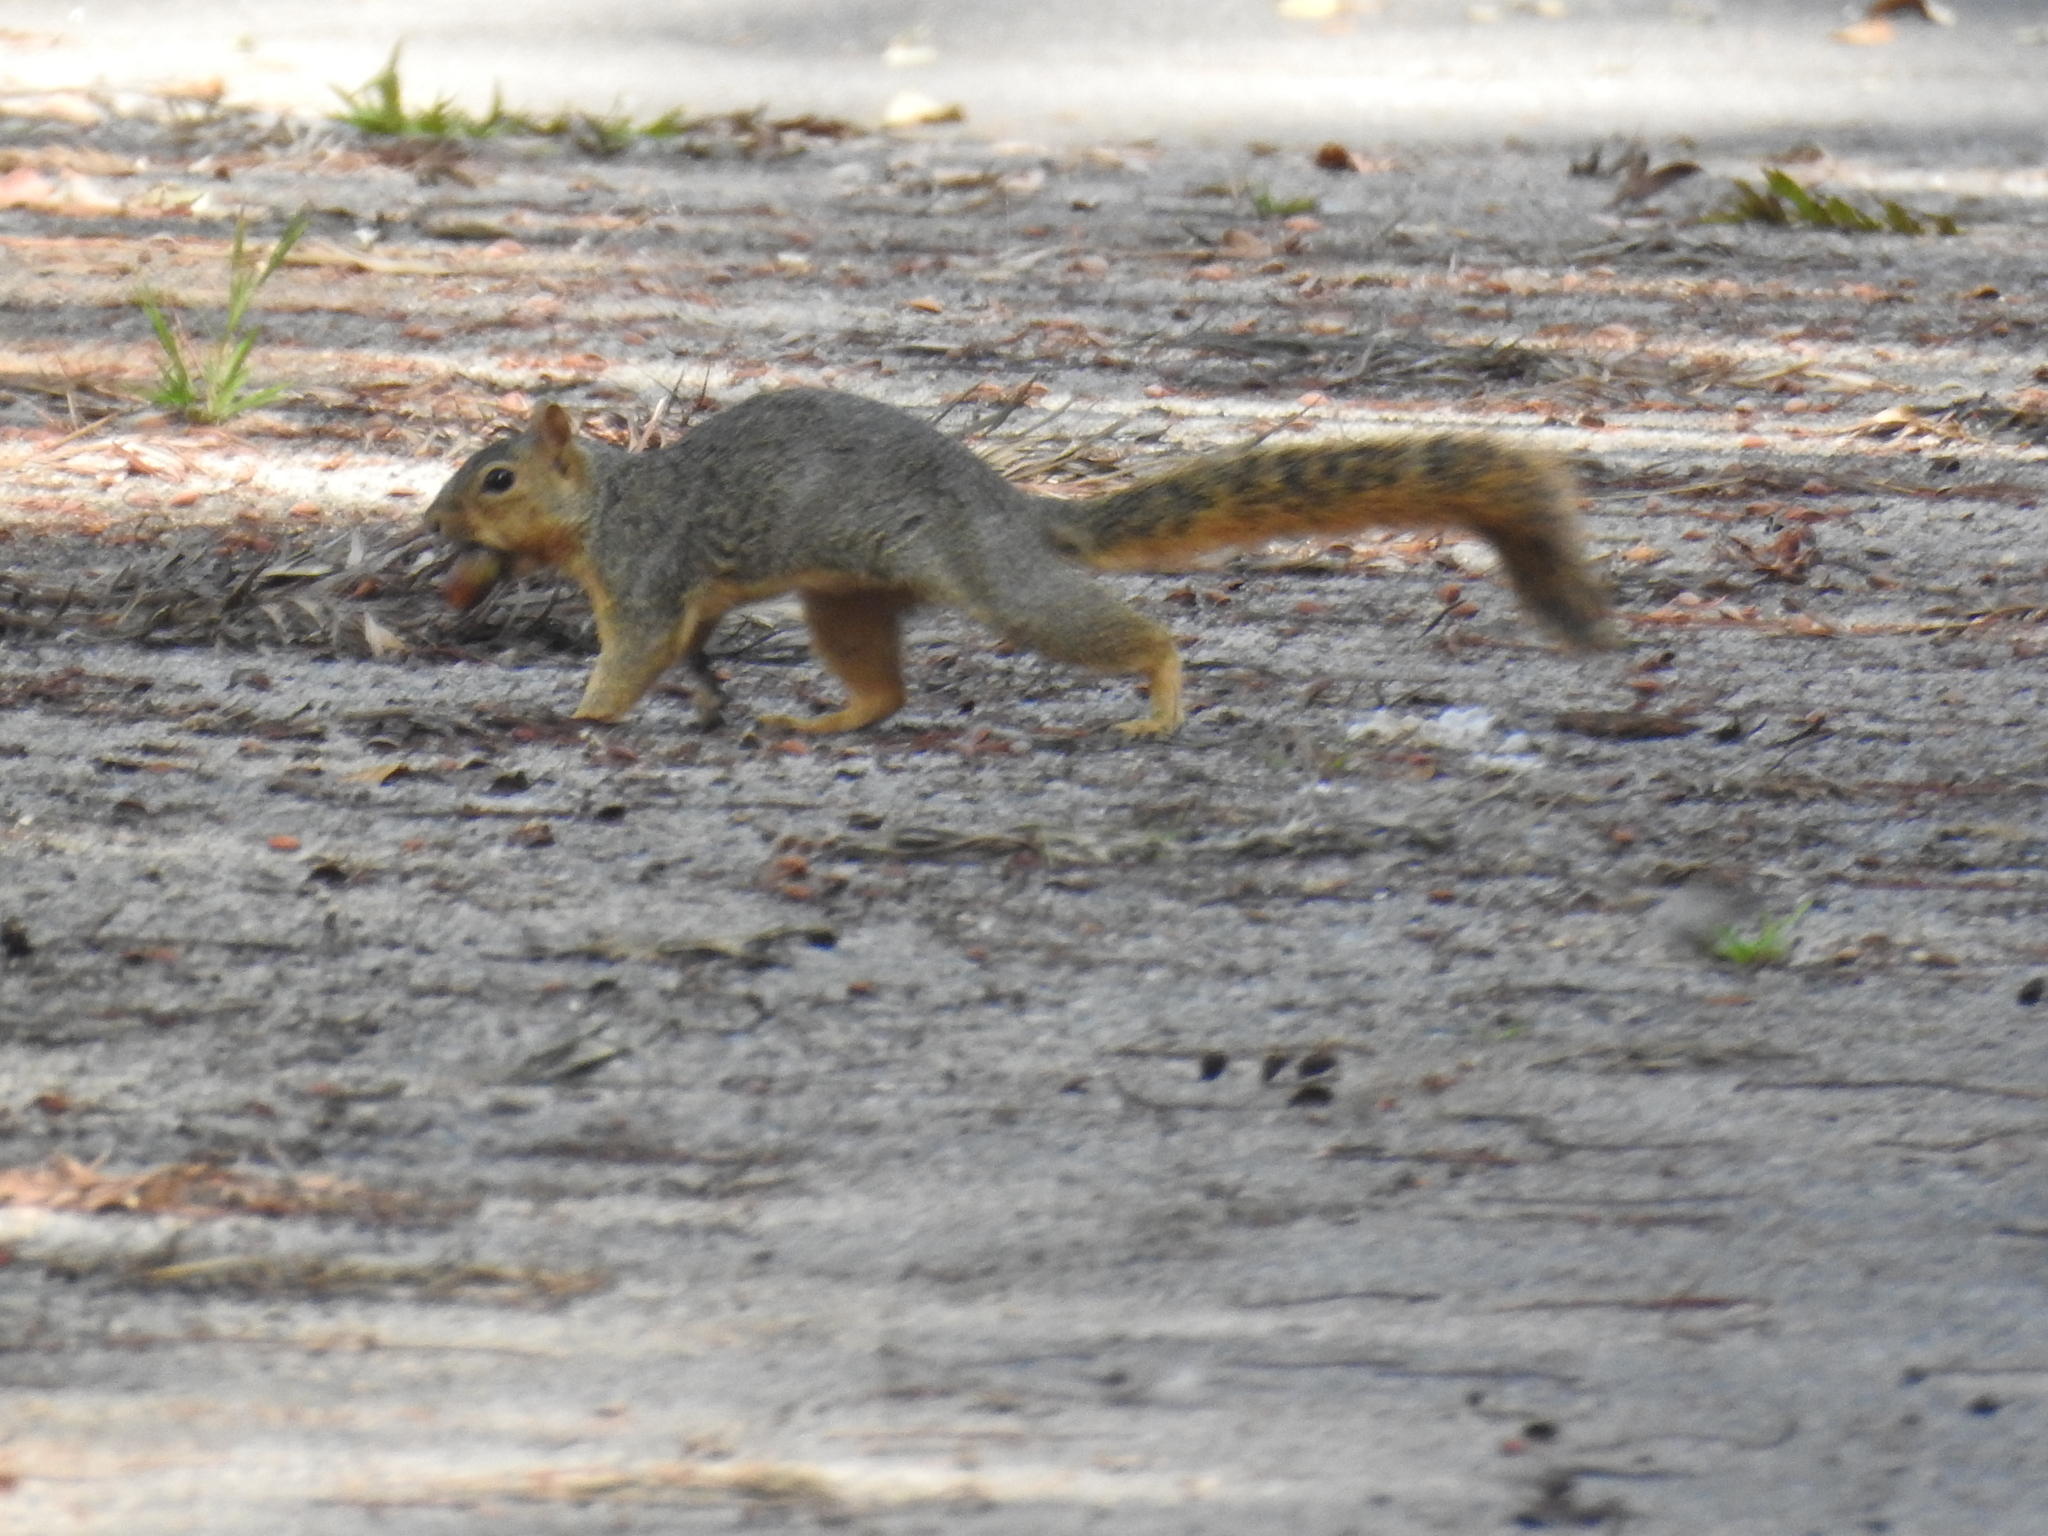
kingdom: Animalia
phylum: Chordata
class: Mammalia
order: Rodentia
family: Sciuridae
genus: Sciurus
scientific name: Sciurus niger
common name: Fox squirrel
